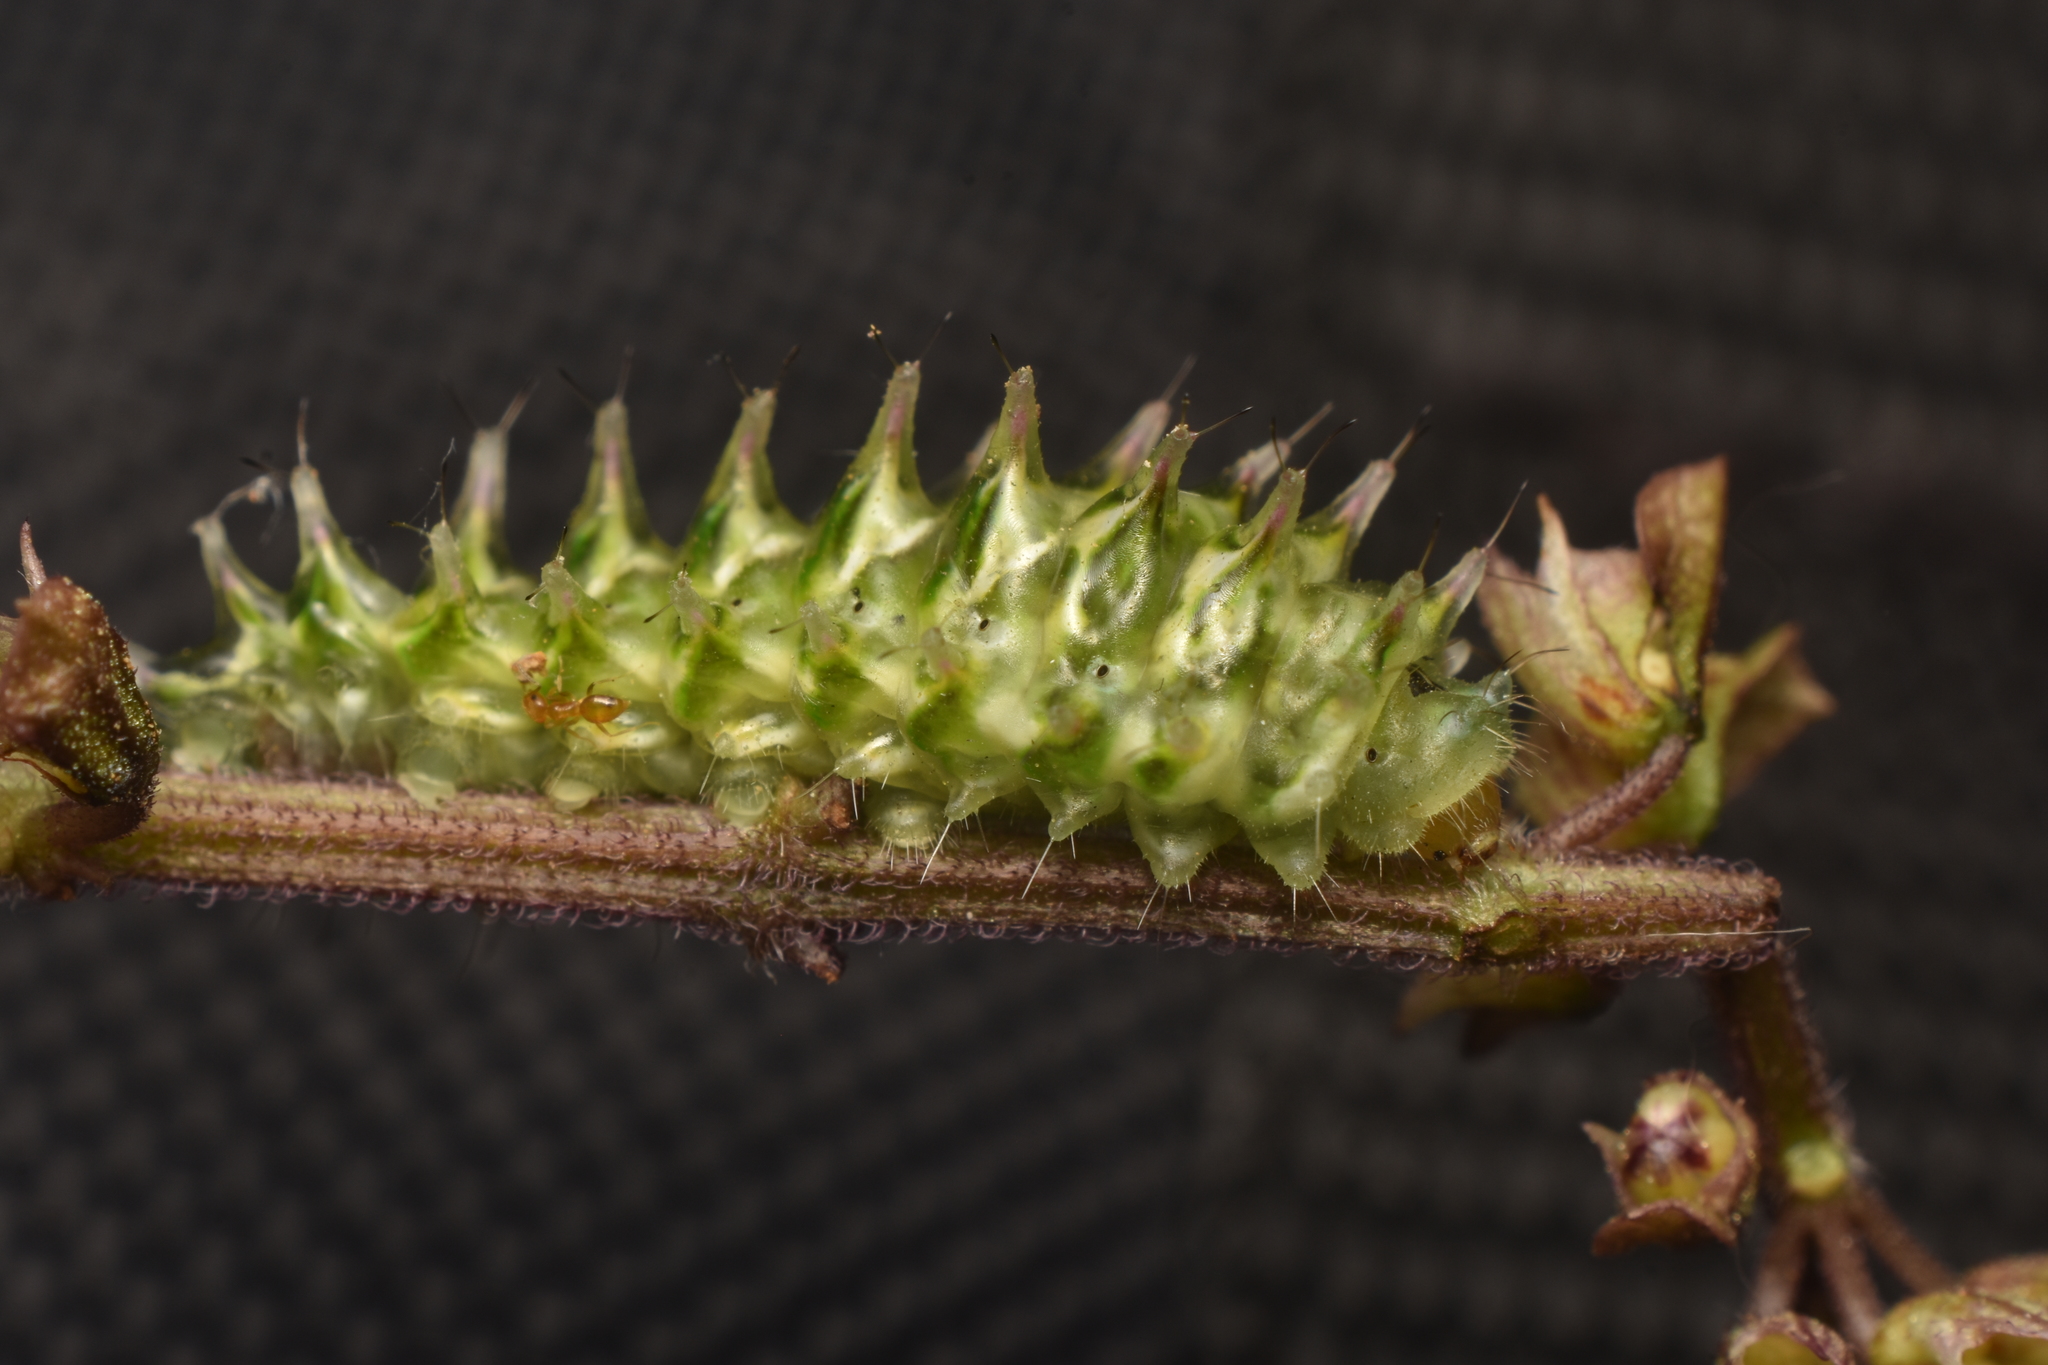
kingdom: Animalia
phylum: Arthropoda
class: Insecta
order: Lepidoptera
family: Lycaenidae
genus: Rekoa
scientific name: Rekoa palegon
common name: Gold-bordered hairstreak
